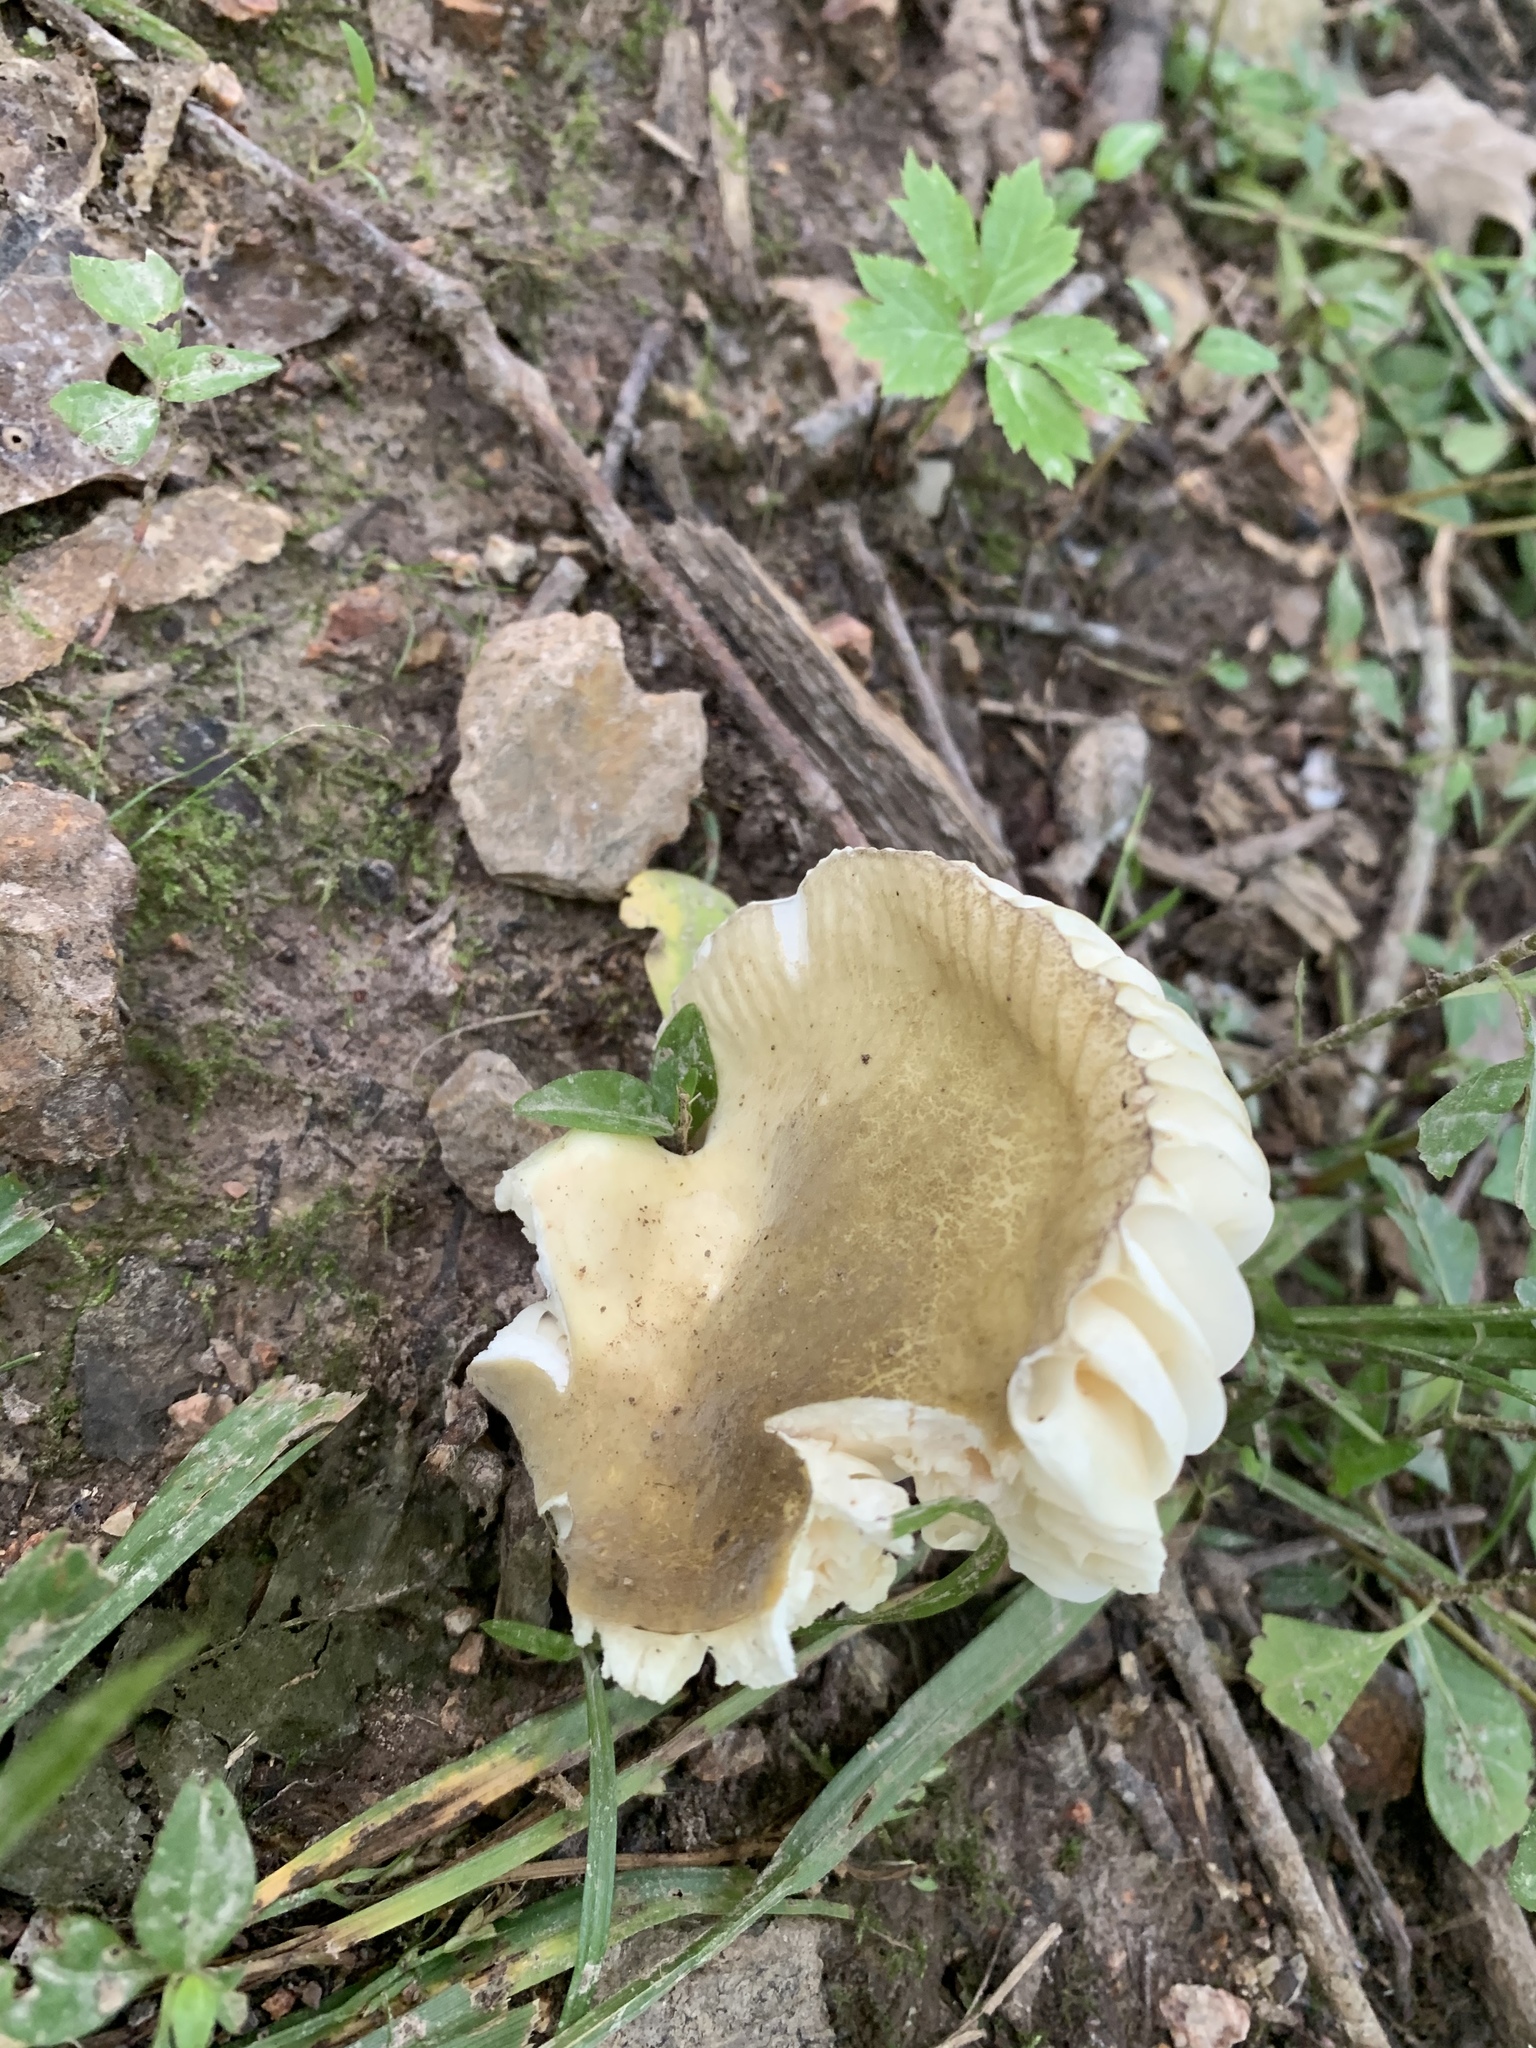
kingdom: Fungi
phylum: Basidiomycota
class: Agaricomycetes
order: Agaricales
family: Pleurotaceae
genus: Pleurotus
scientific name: Pleurotus pulmonarius
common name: Pale oyster
